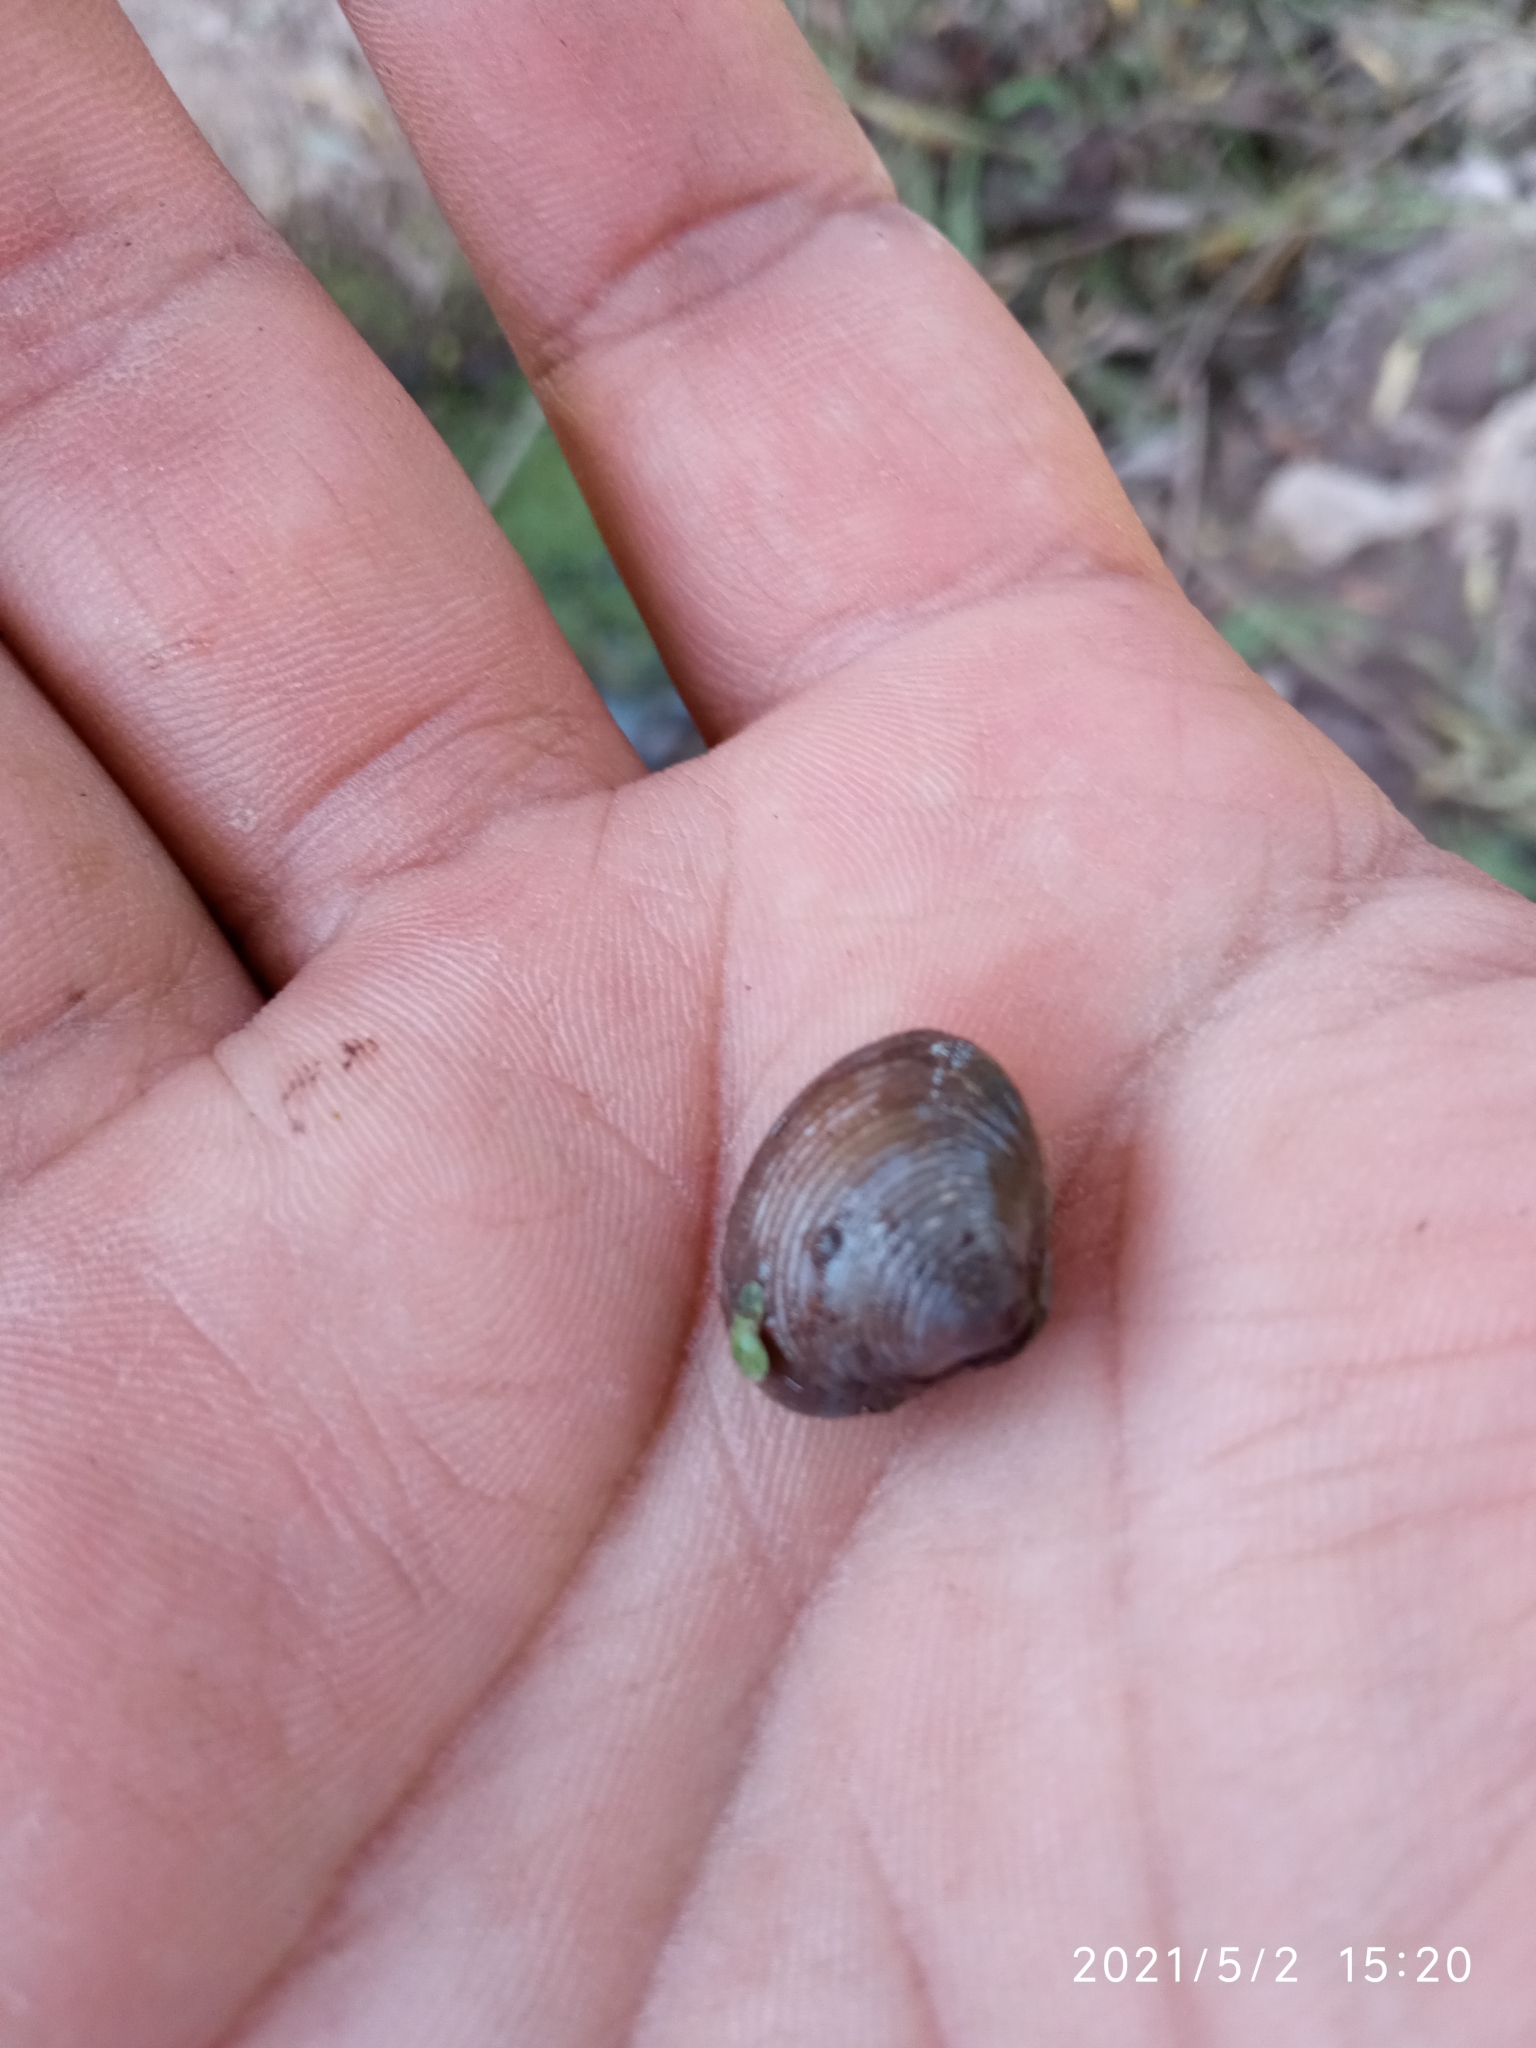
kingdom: Animalia
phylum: Mollusca
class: Bivalvia
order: Venerida
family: Cyrenidae
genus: Corbicula
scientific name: Corbicula fluminea
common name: Asian clam
